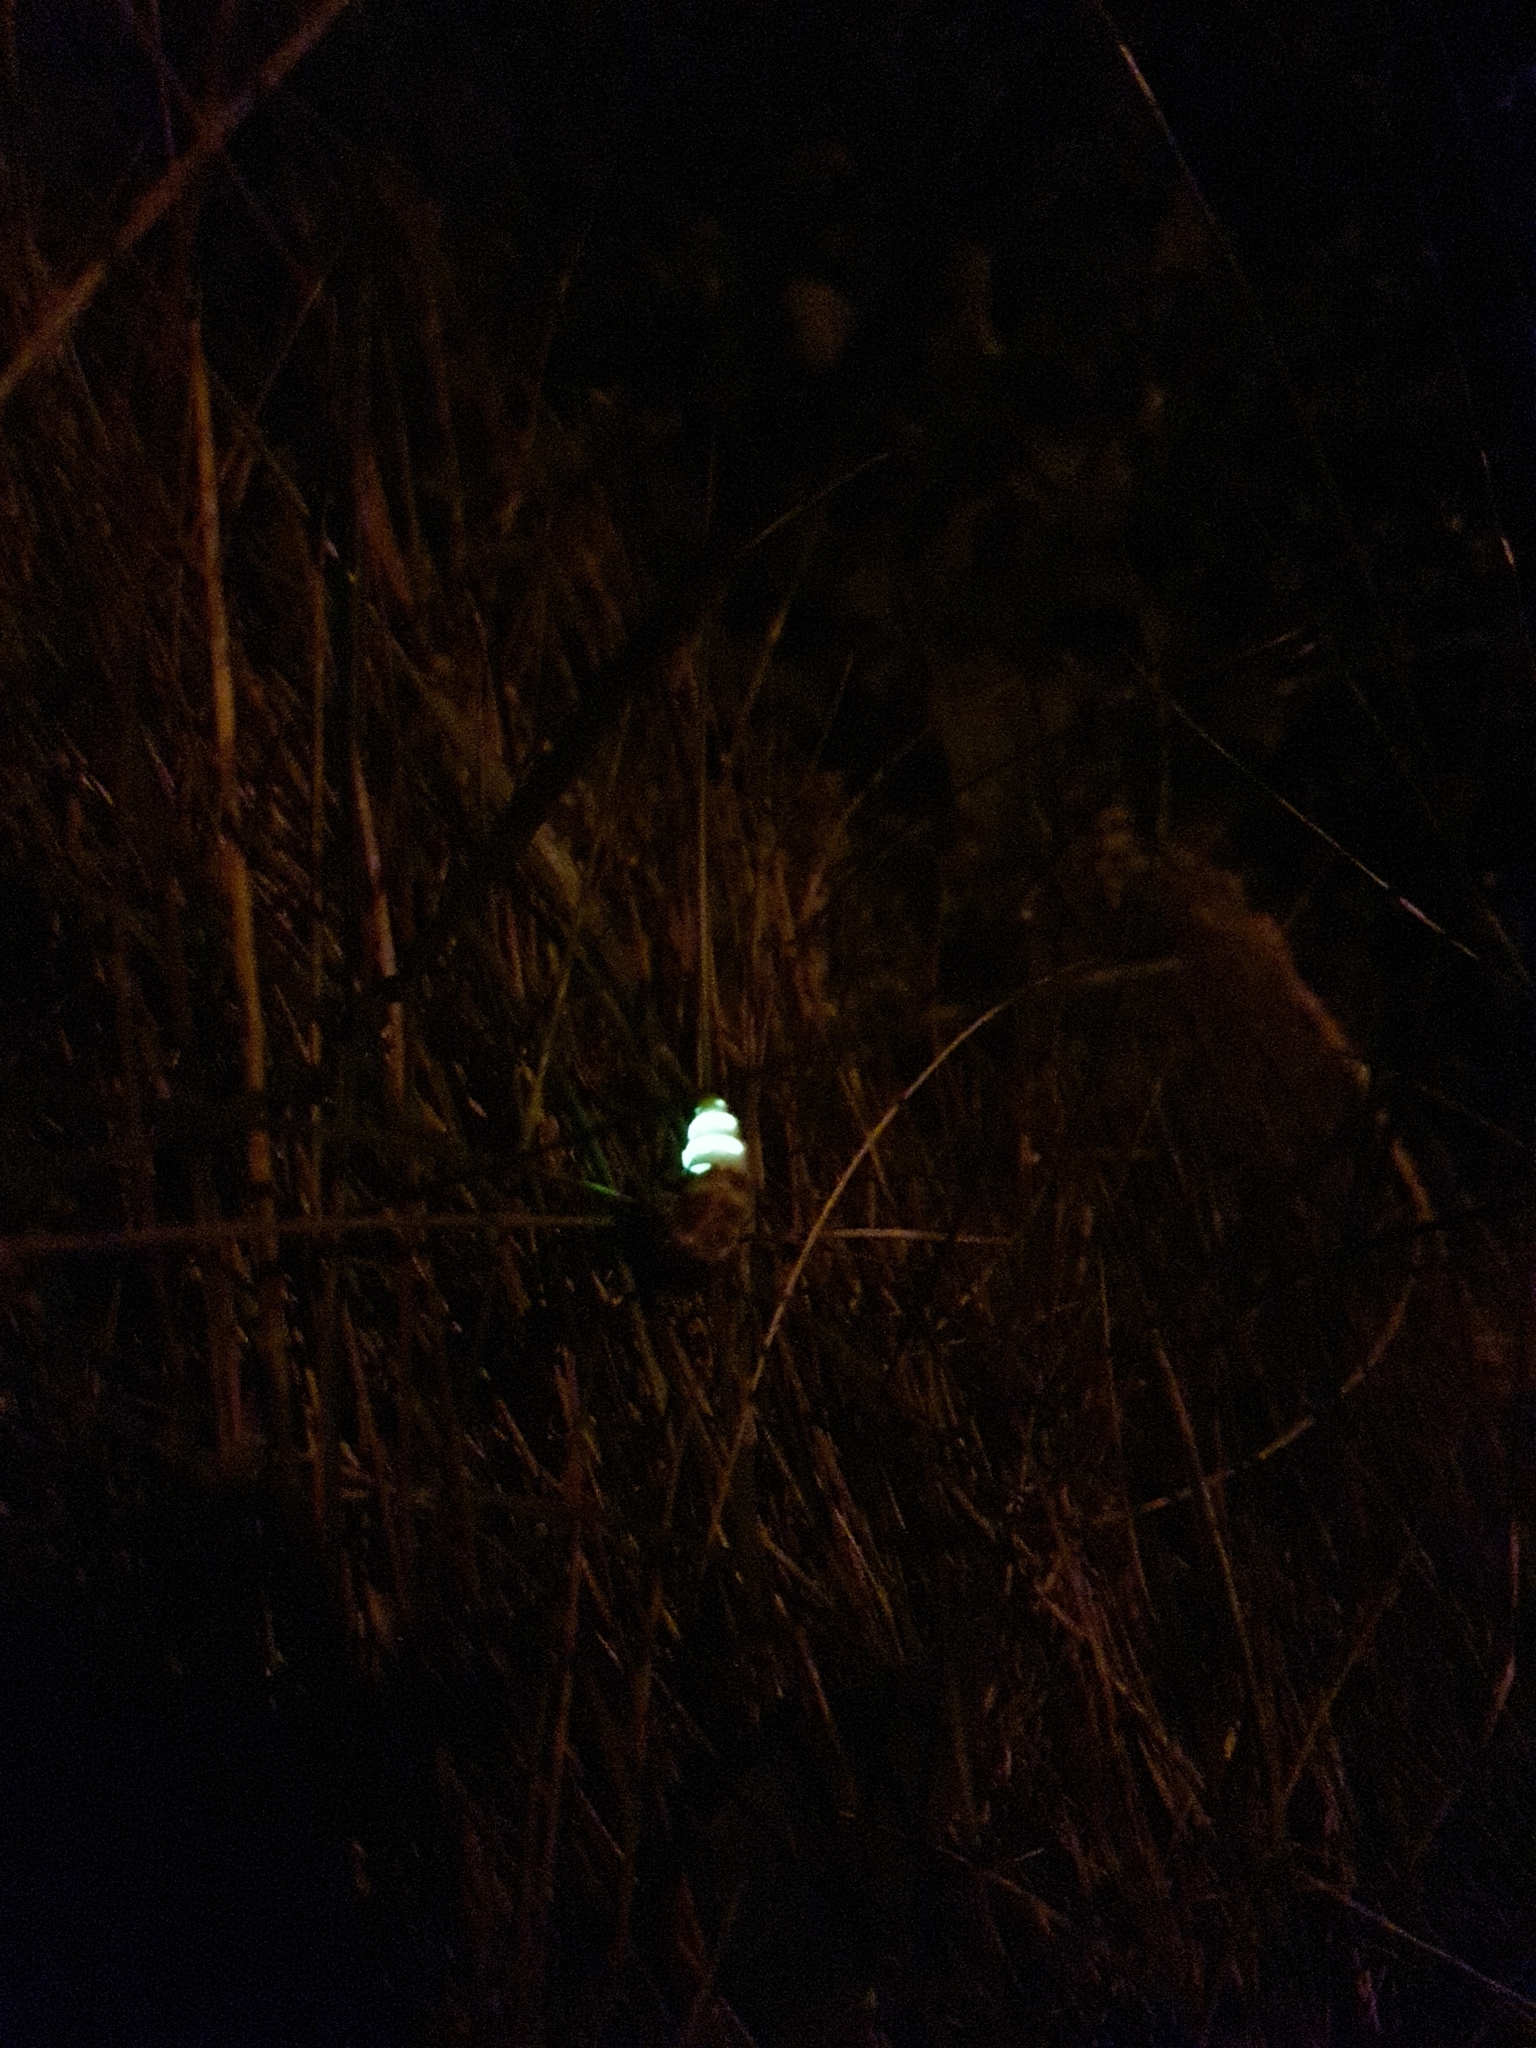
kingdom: Animalia
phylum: Arthropoda
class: Insecta
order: Coleoptera
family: Lampyridae
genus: Lampyris
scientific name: Lampyris noctiluca
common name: Glow-worm
